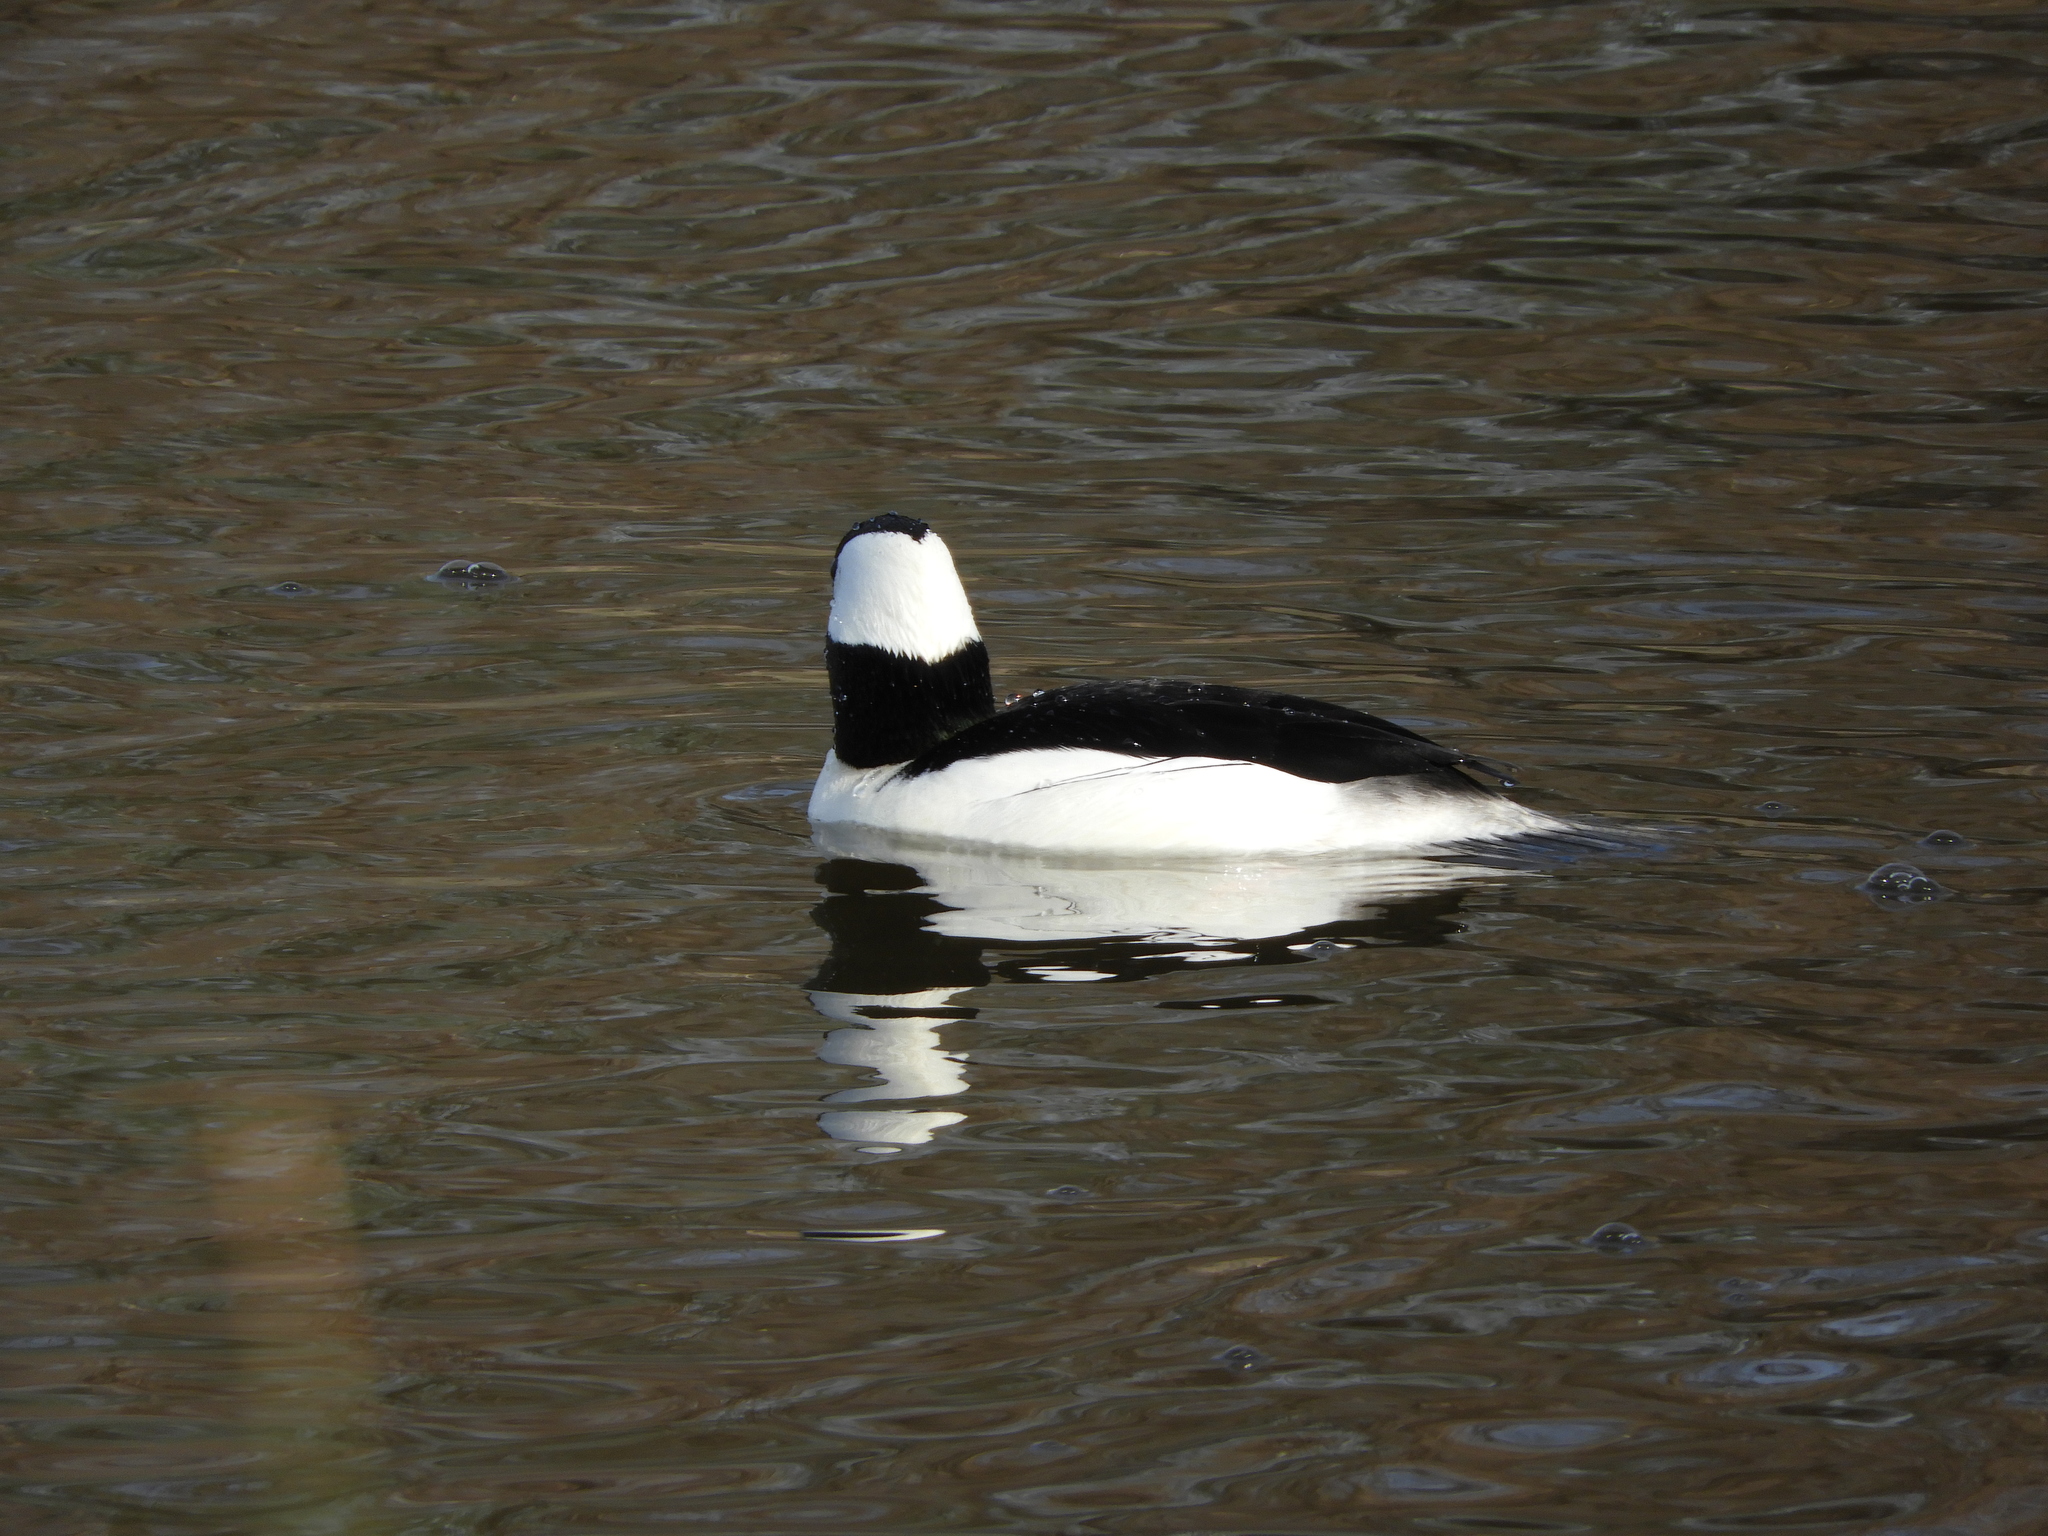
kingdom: Animalia
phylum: Chordata
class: Aves
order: Anseriformes
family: Anatidae
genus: Bucephala
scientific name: Bucephala albeola
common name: Bufflehead
